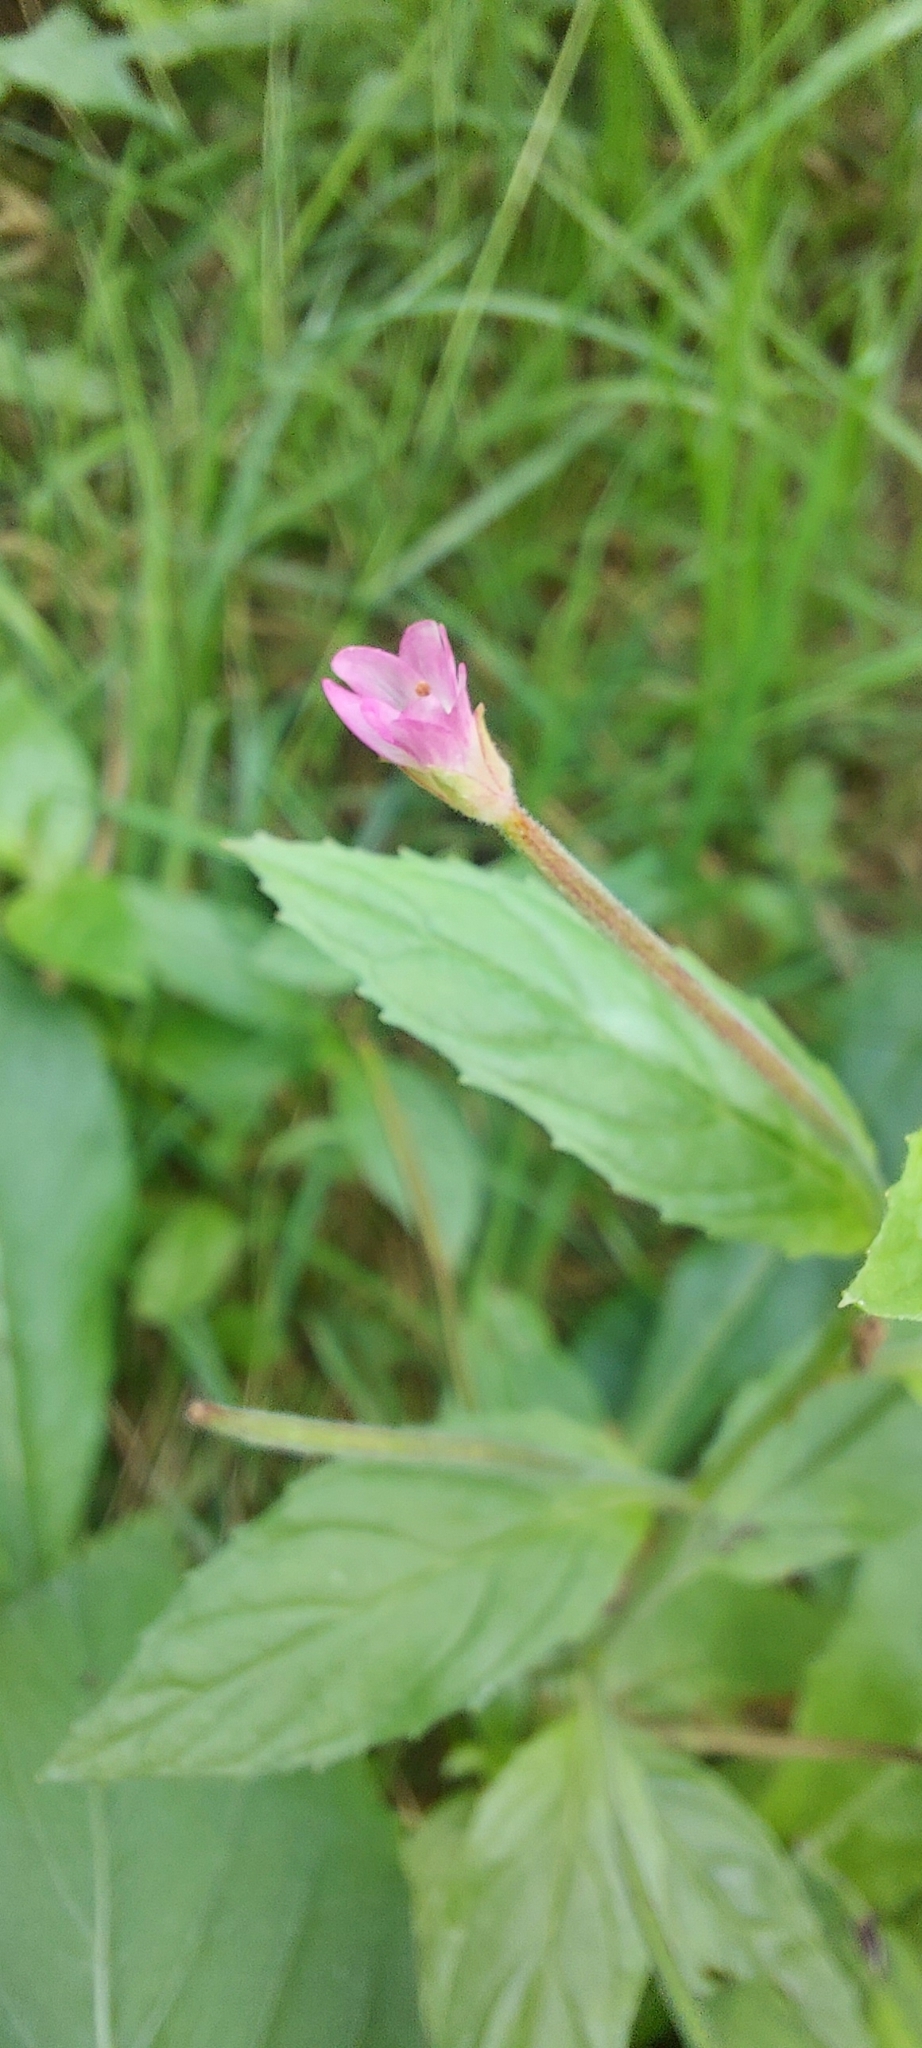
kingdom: Plantae
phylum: Tracheophyta
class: Magnoliopsida
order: Myrtales
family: Onagraceae
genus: Epilobium
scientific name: Epilobium roseum
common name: Pale willowherb
